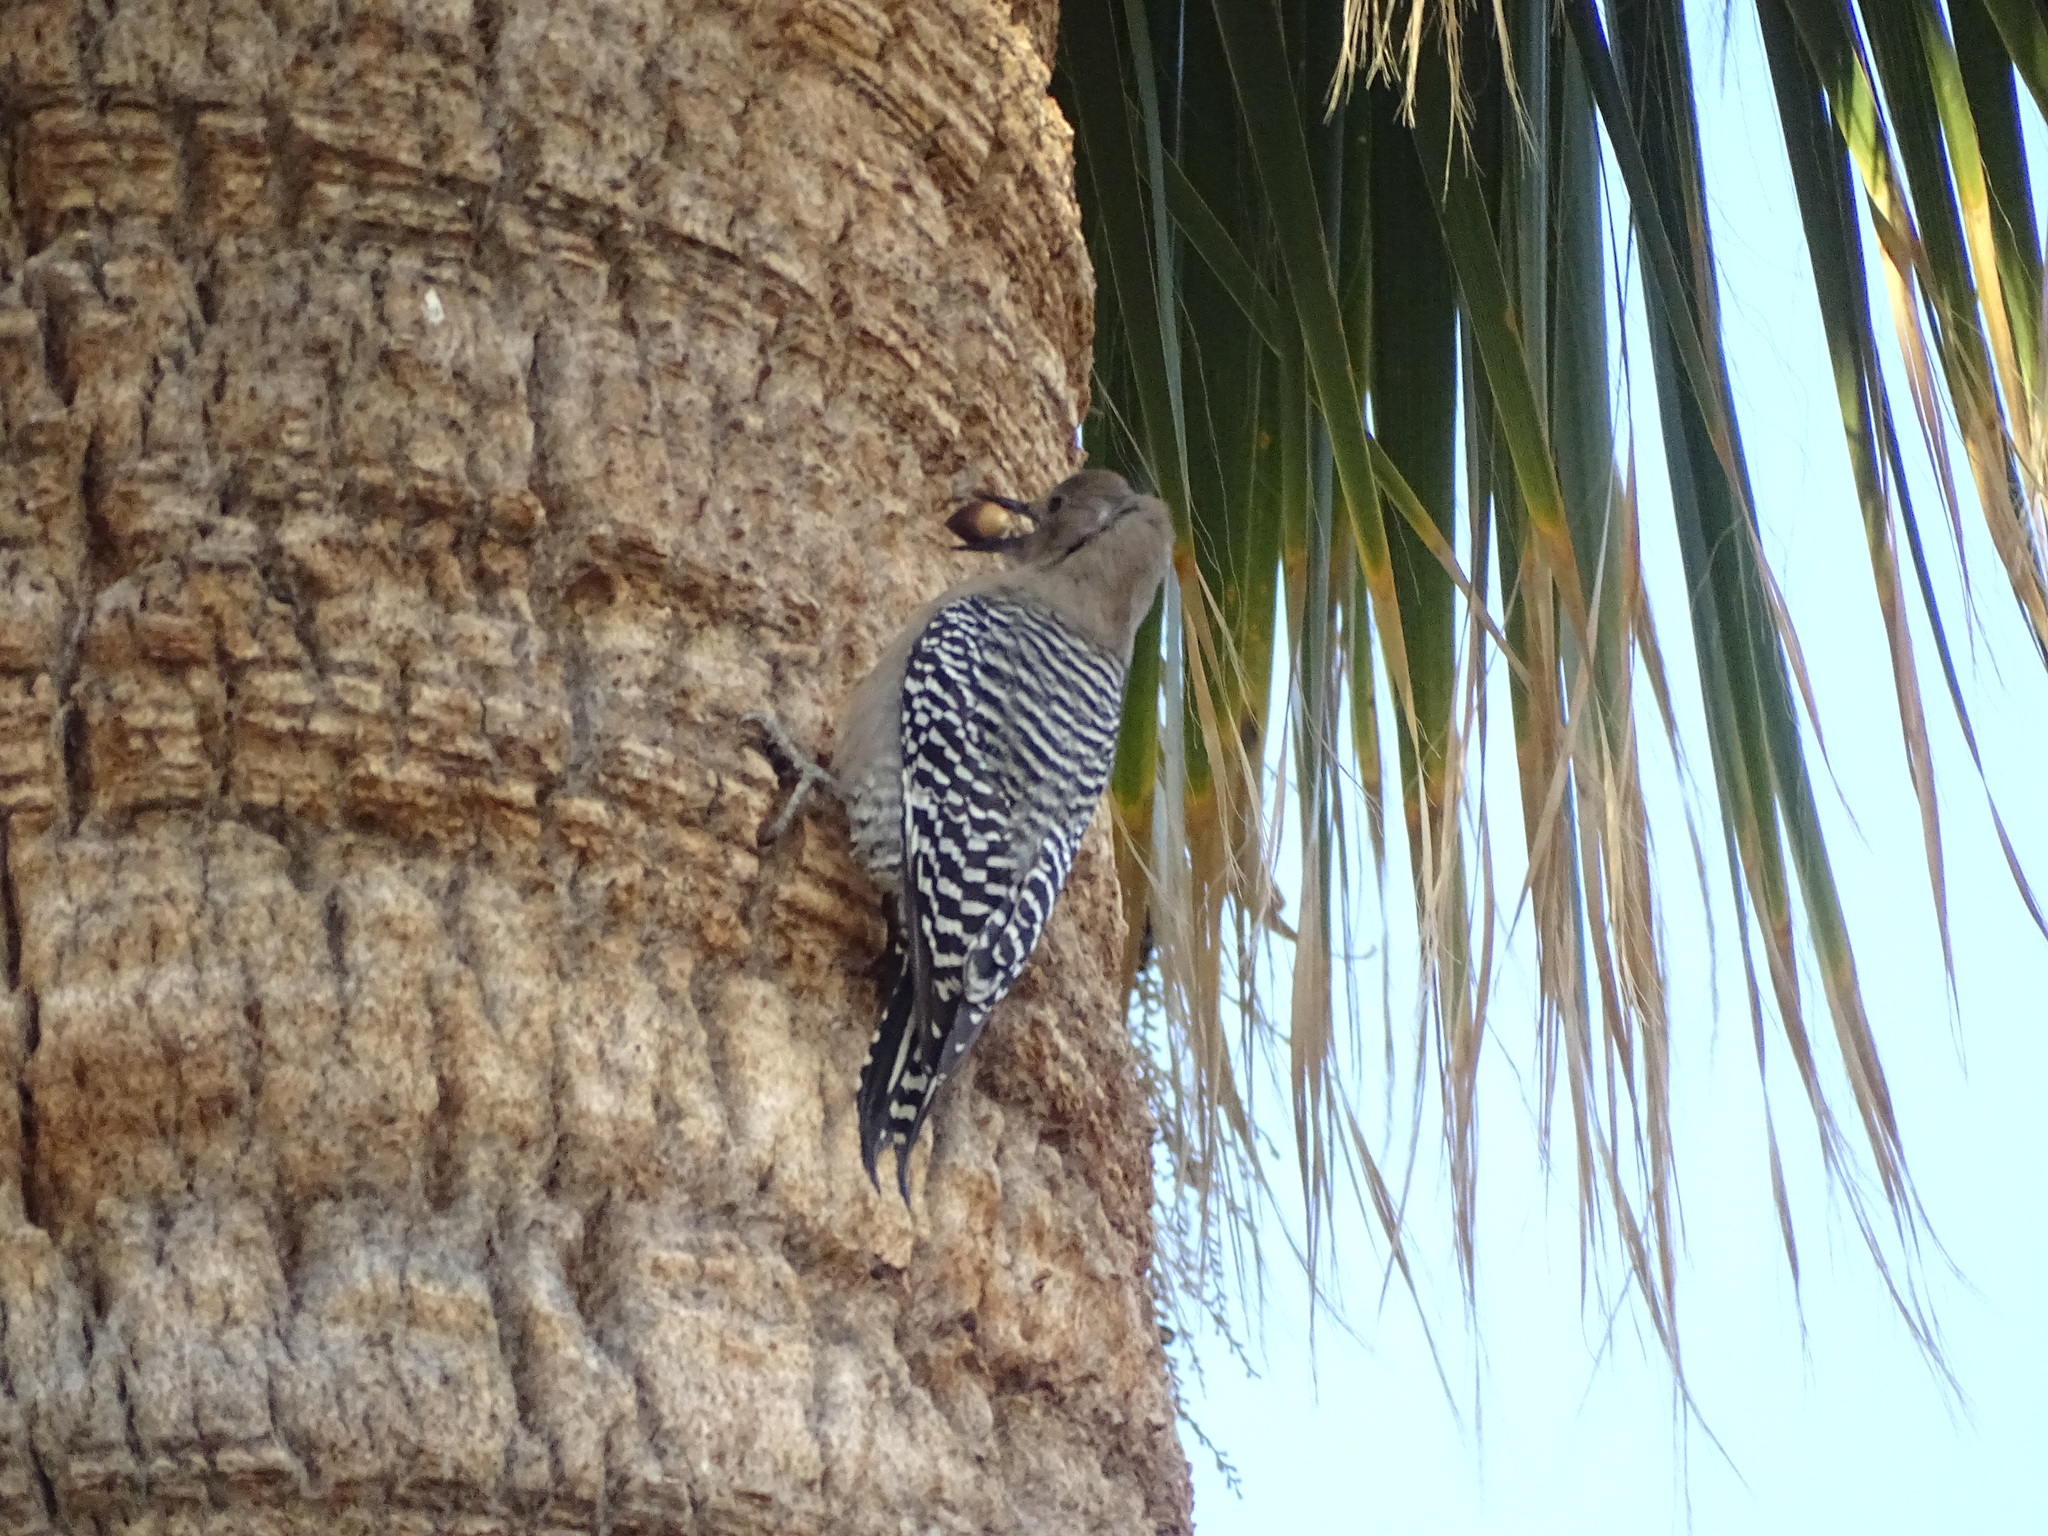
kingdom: Animalia
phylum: Chordata
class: Aves
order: Piciformes
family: Picidae
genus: Melanerpes
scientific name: Melanerpes uropygialis
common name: Gila woodpecker
